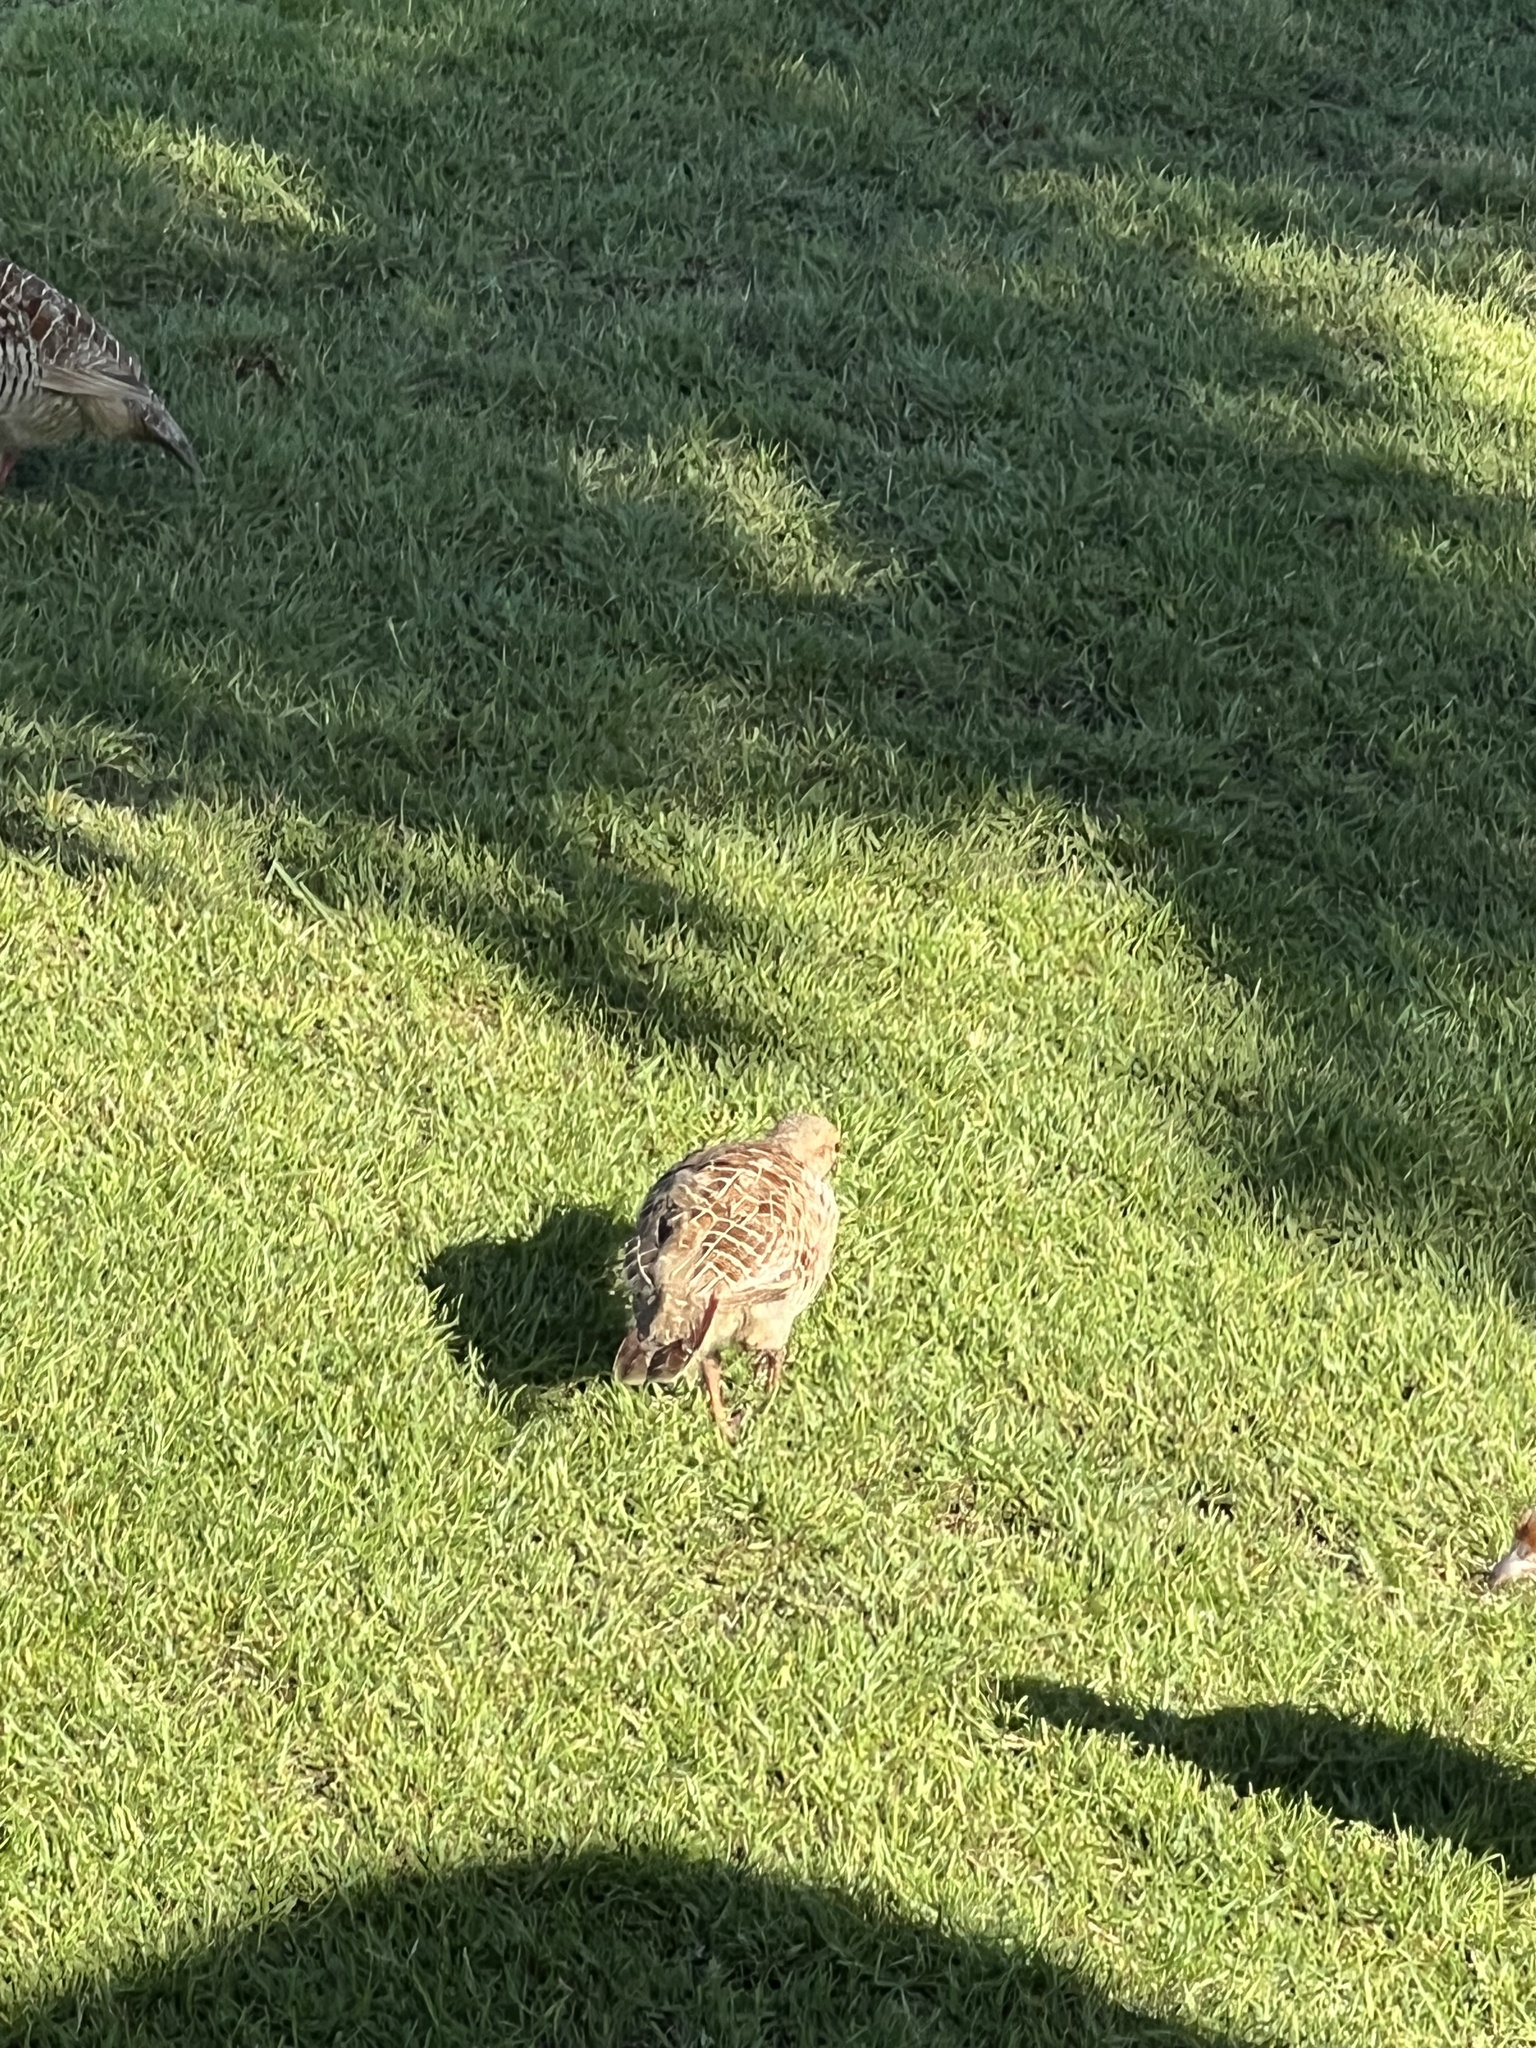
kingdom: Animalia
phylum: Chordata
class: Aves
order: Galliformes
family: Phasianidae
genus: Ortygornis
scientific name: Ortygornis pondicerianus
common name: Grey francolin
